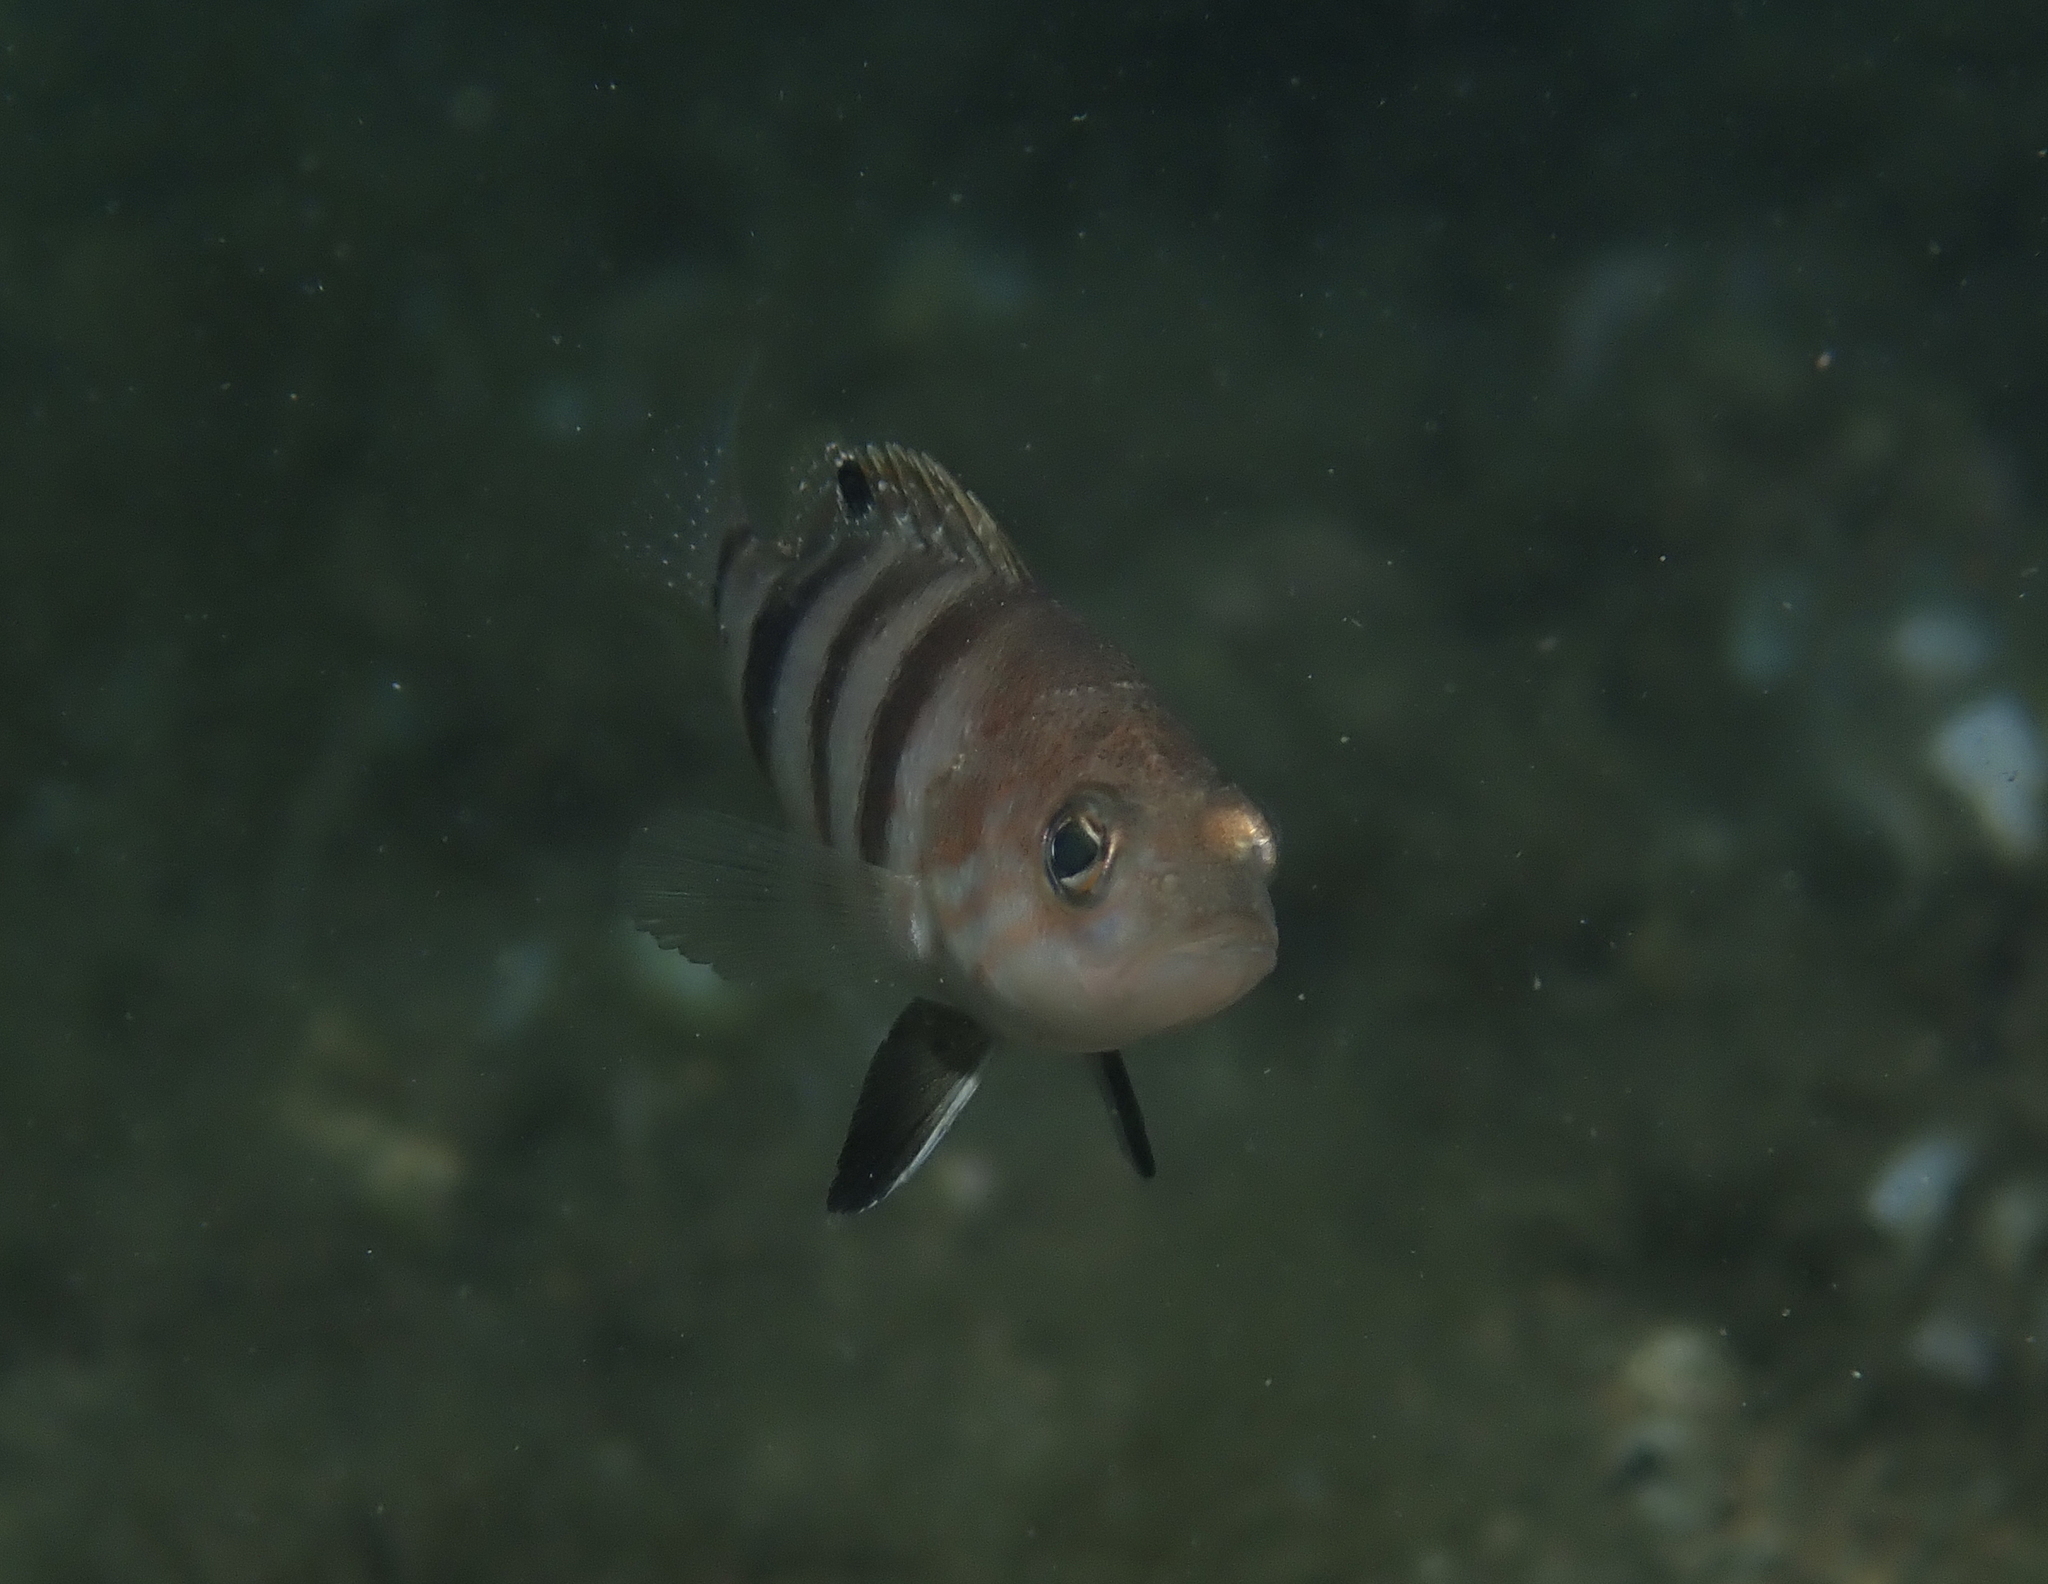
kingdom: Animalia
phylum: Chordata
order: Perciformes
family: Serranidae
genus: Serranus
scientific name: Serranus hepatus
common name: Brown comber
